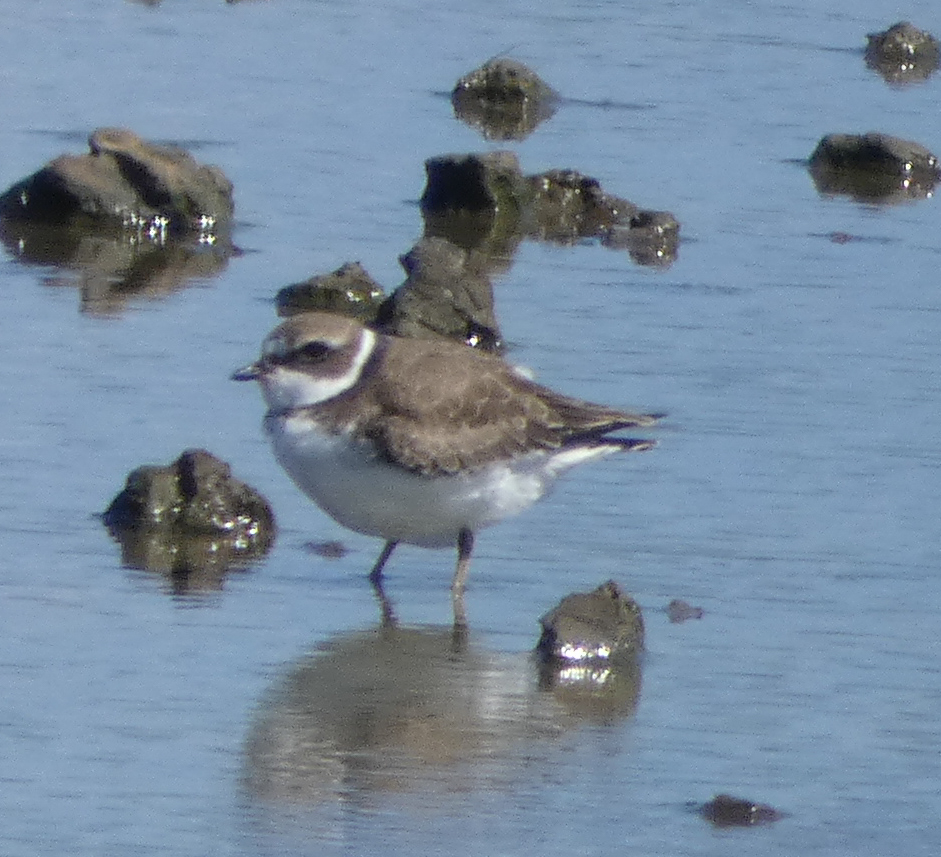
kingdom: Animalia
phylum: Chordata
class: Aves
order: Charadriiformes
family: Charadriidae
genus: Charadrius
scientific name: Charadrius semipalmatus
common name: Semipalmated plover
